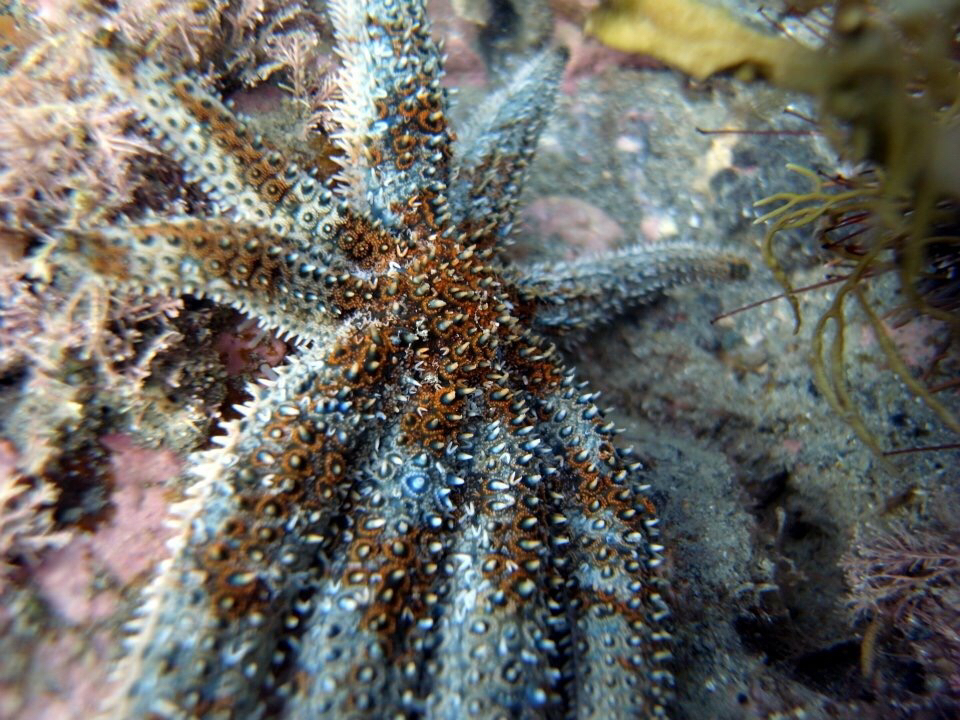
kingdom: Animalia
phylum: Echinodermata
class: Asteroidea
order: Forcipulatida
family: Asteriidae
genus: Coscinasterias
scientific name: Coscinasterias muricata
